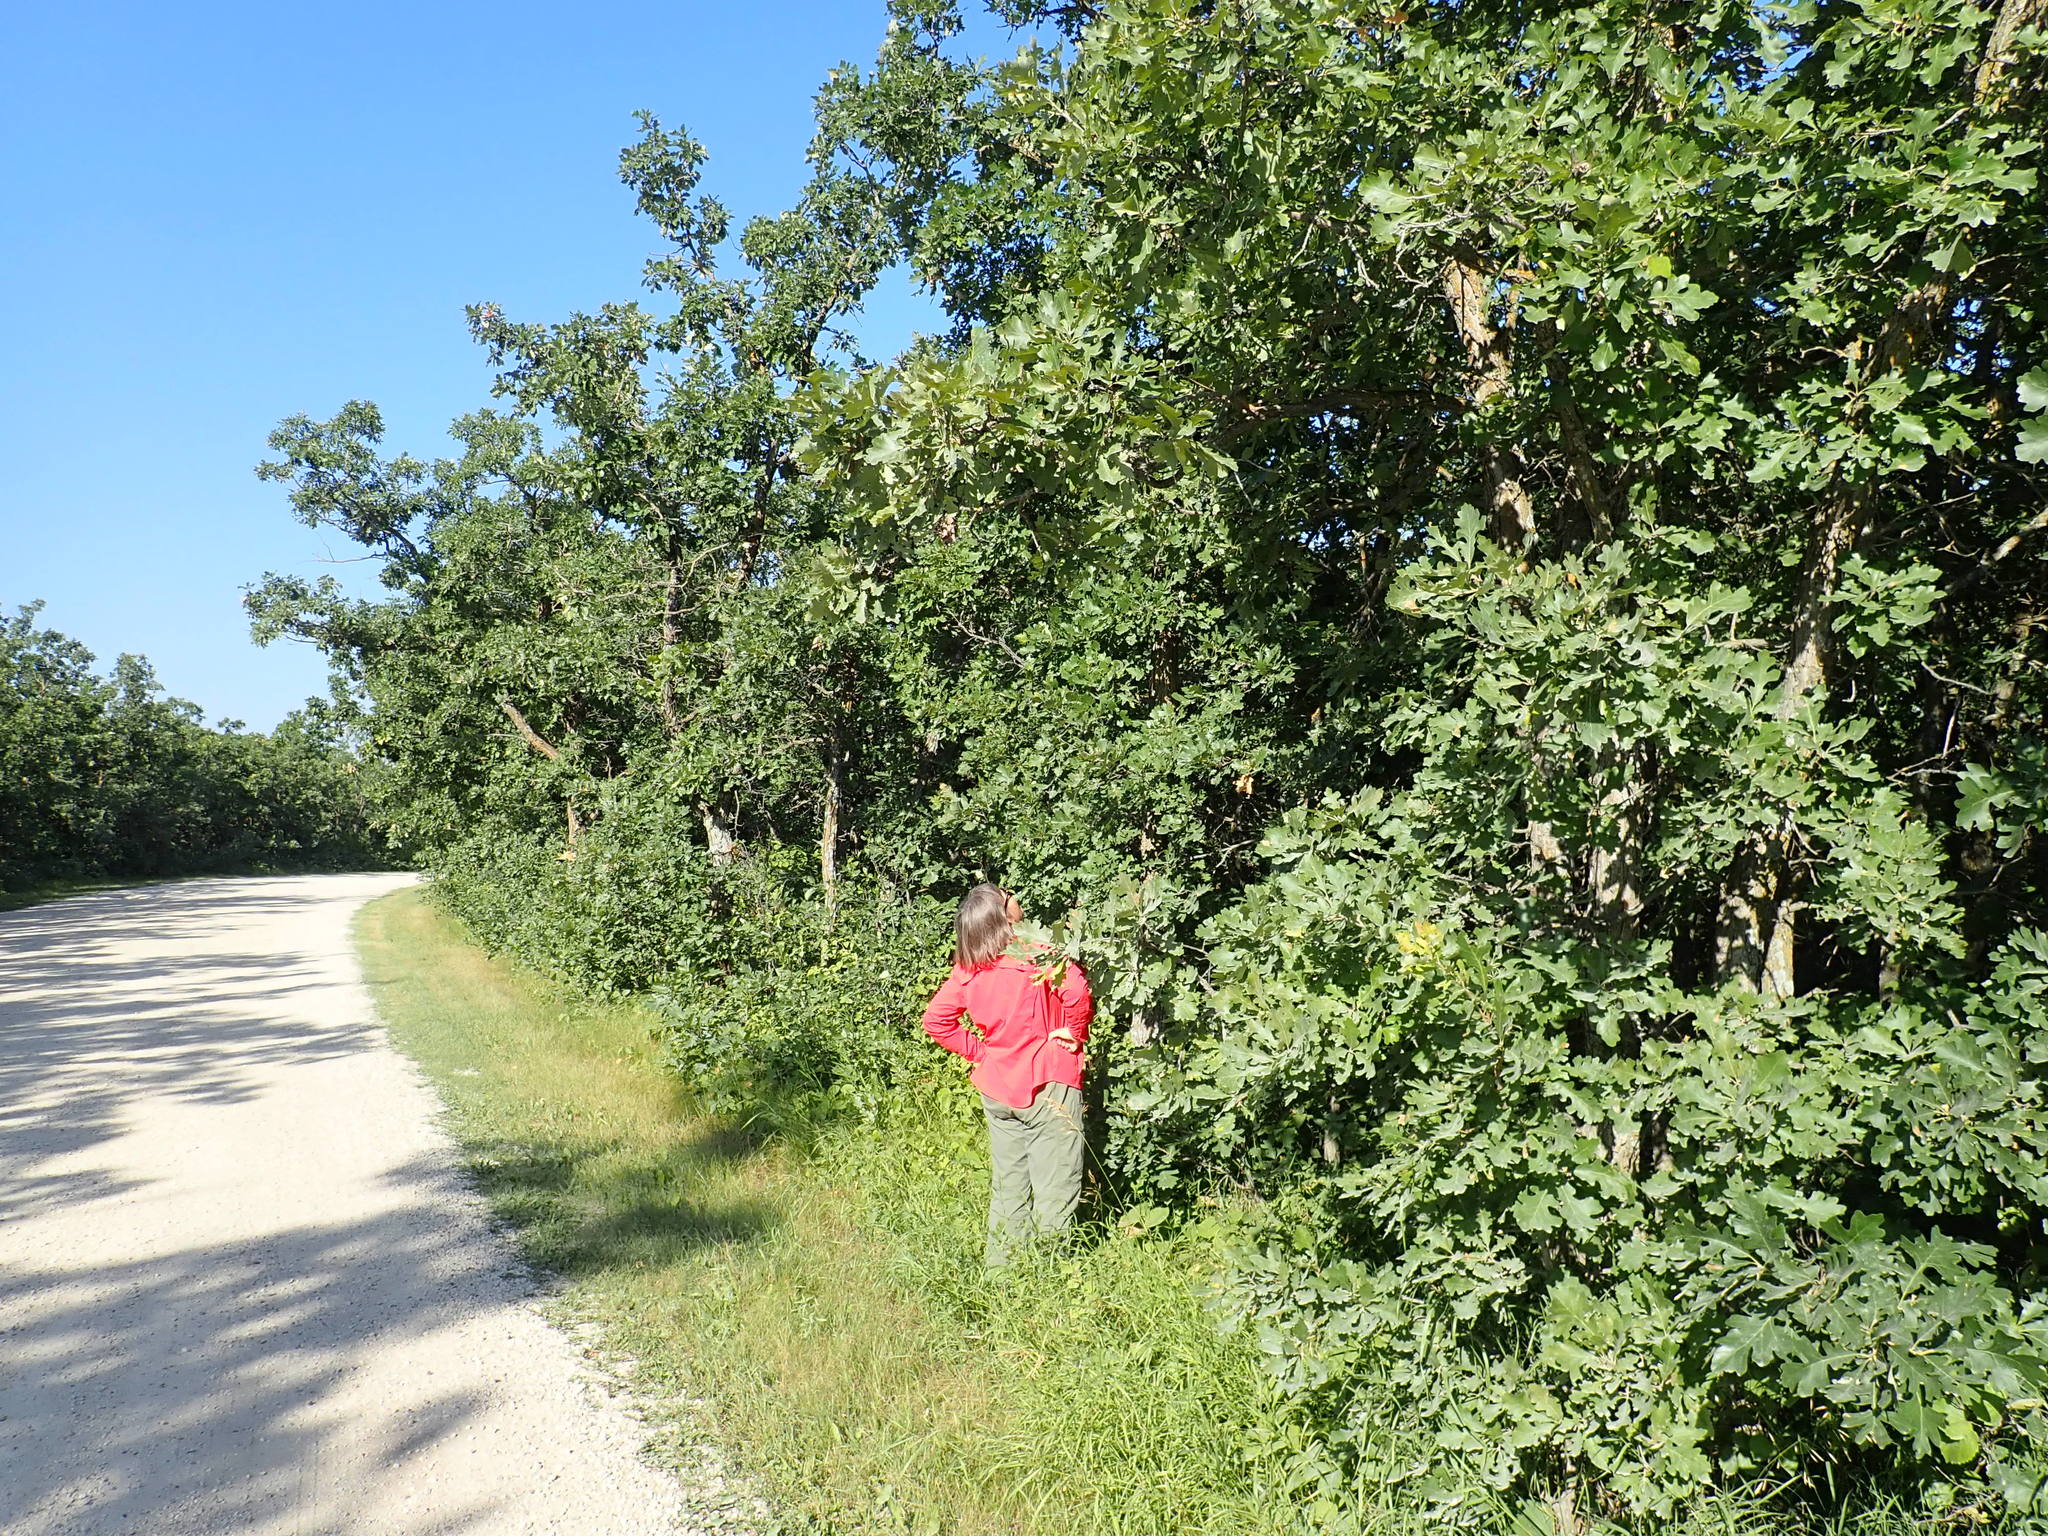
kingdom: Plantae
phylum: Tracheophyta
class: Magnoliopsida
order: Fagales
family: Fagaceae
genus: Quercus
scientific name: Quercus macrocarpa
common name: Bur oak
